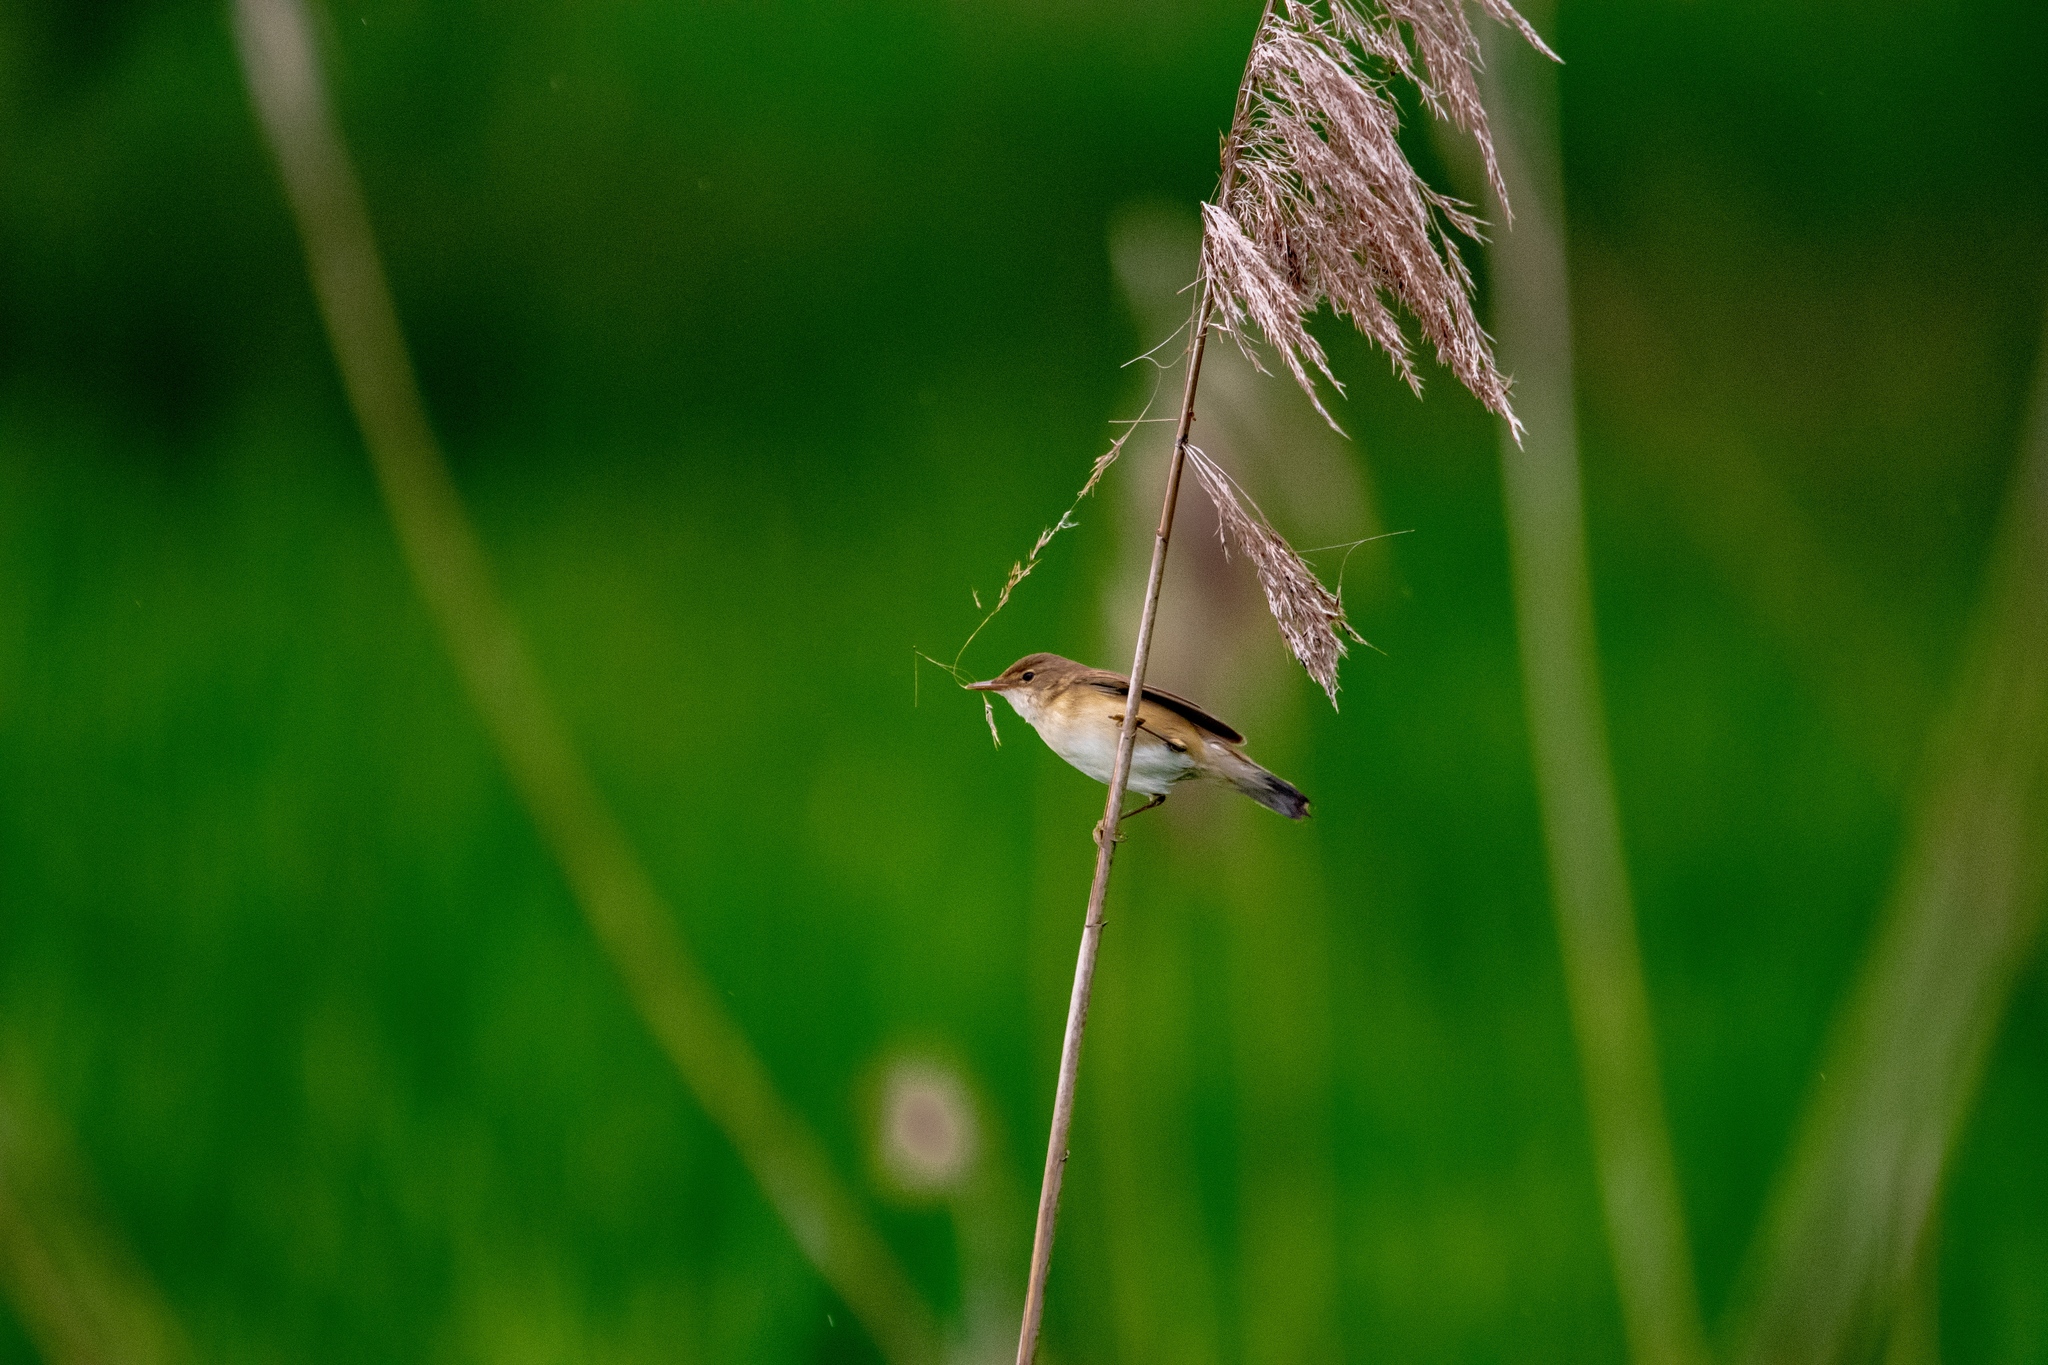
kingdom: Animalia
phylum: Chordata
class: Aves
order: Passeriformes
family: Acrocephalidae
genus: Acrocephalus
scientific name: Acrocephalus scirpaceus
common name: Eurasian reed warbler
